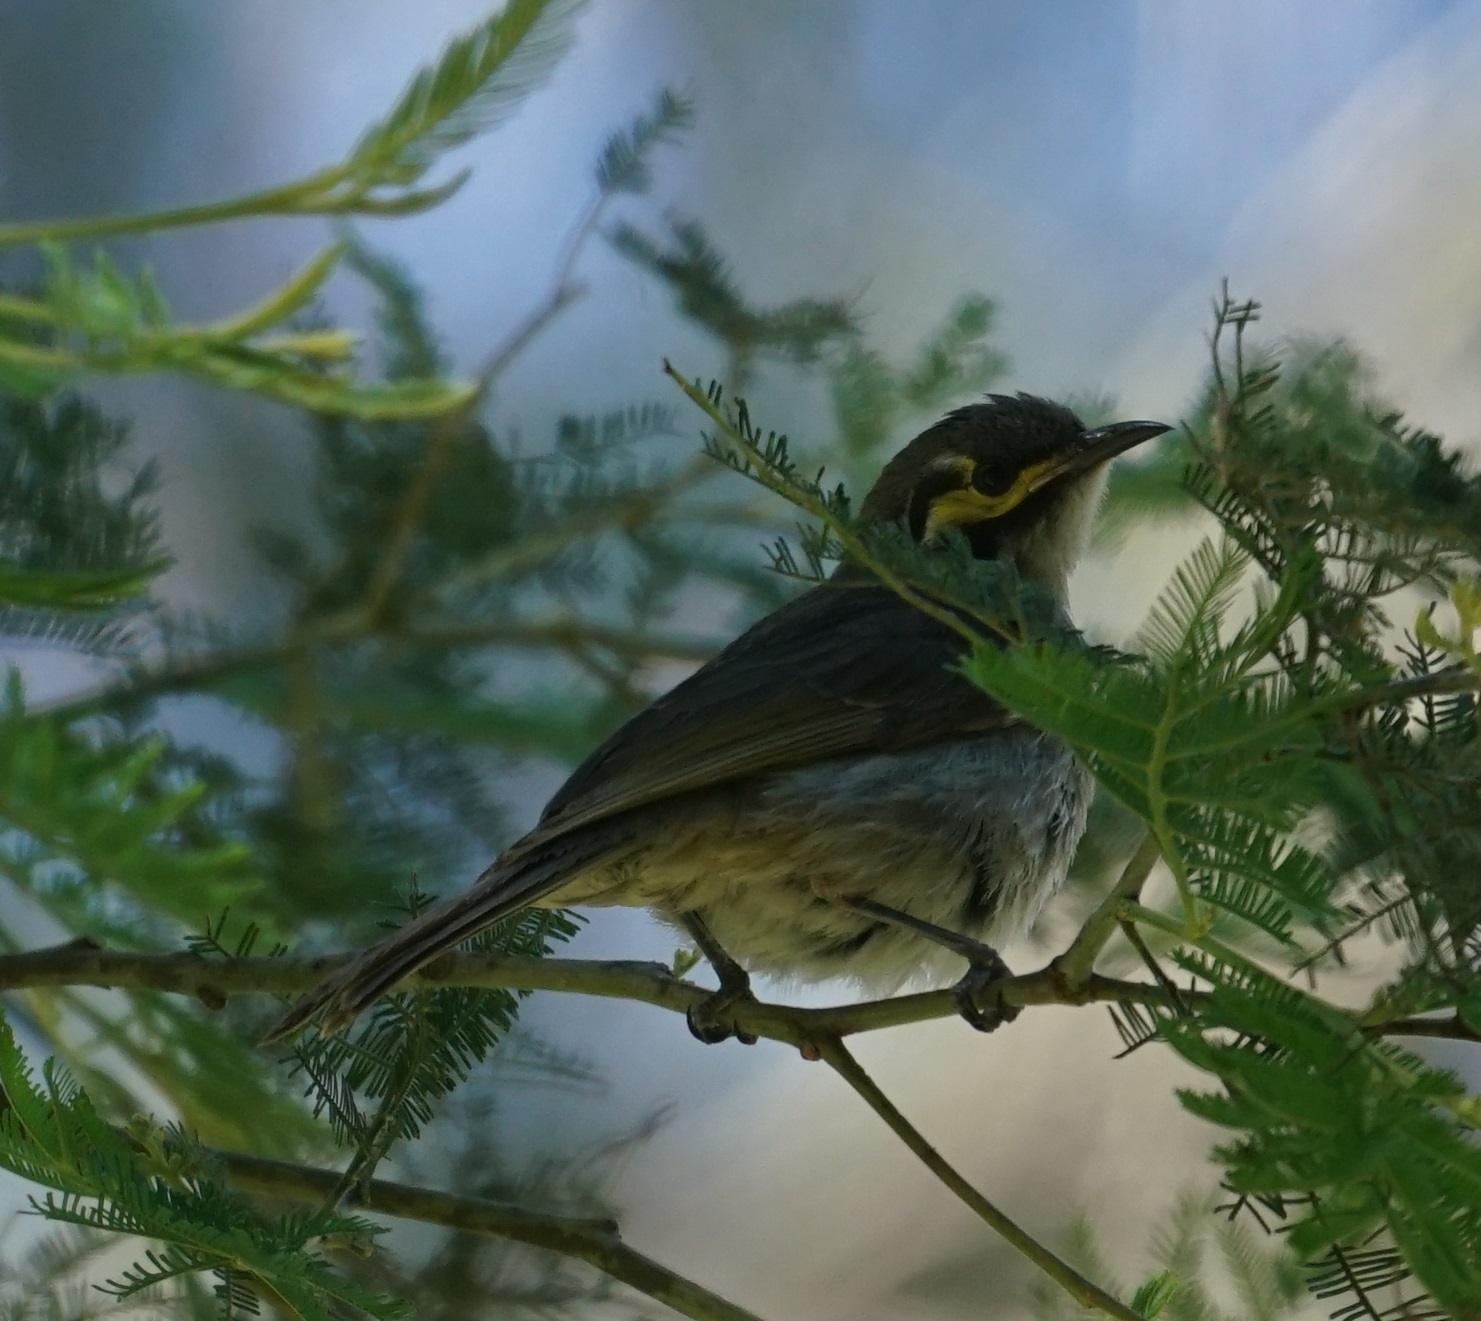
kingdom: Animalia
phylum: Chordata
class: Aves
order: Passeriformes
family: Meliphagidae
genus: Caligavis
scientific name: Caligavis chrysops
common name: Yellow-faced honeyeater
